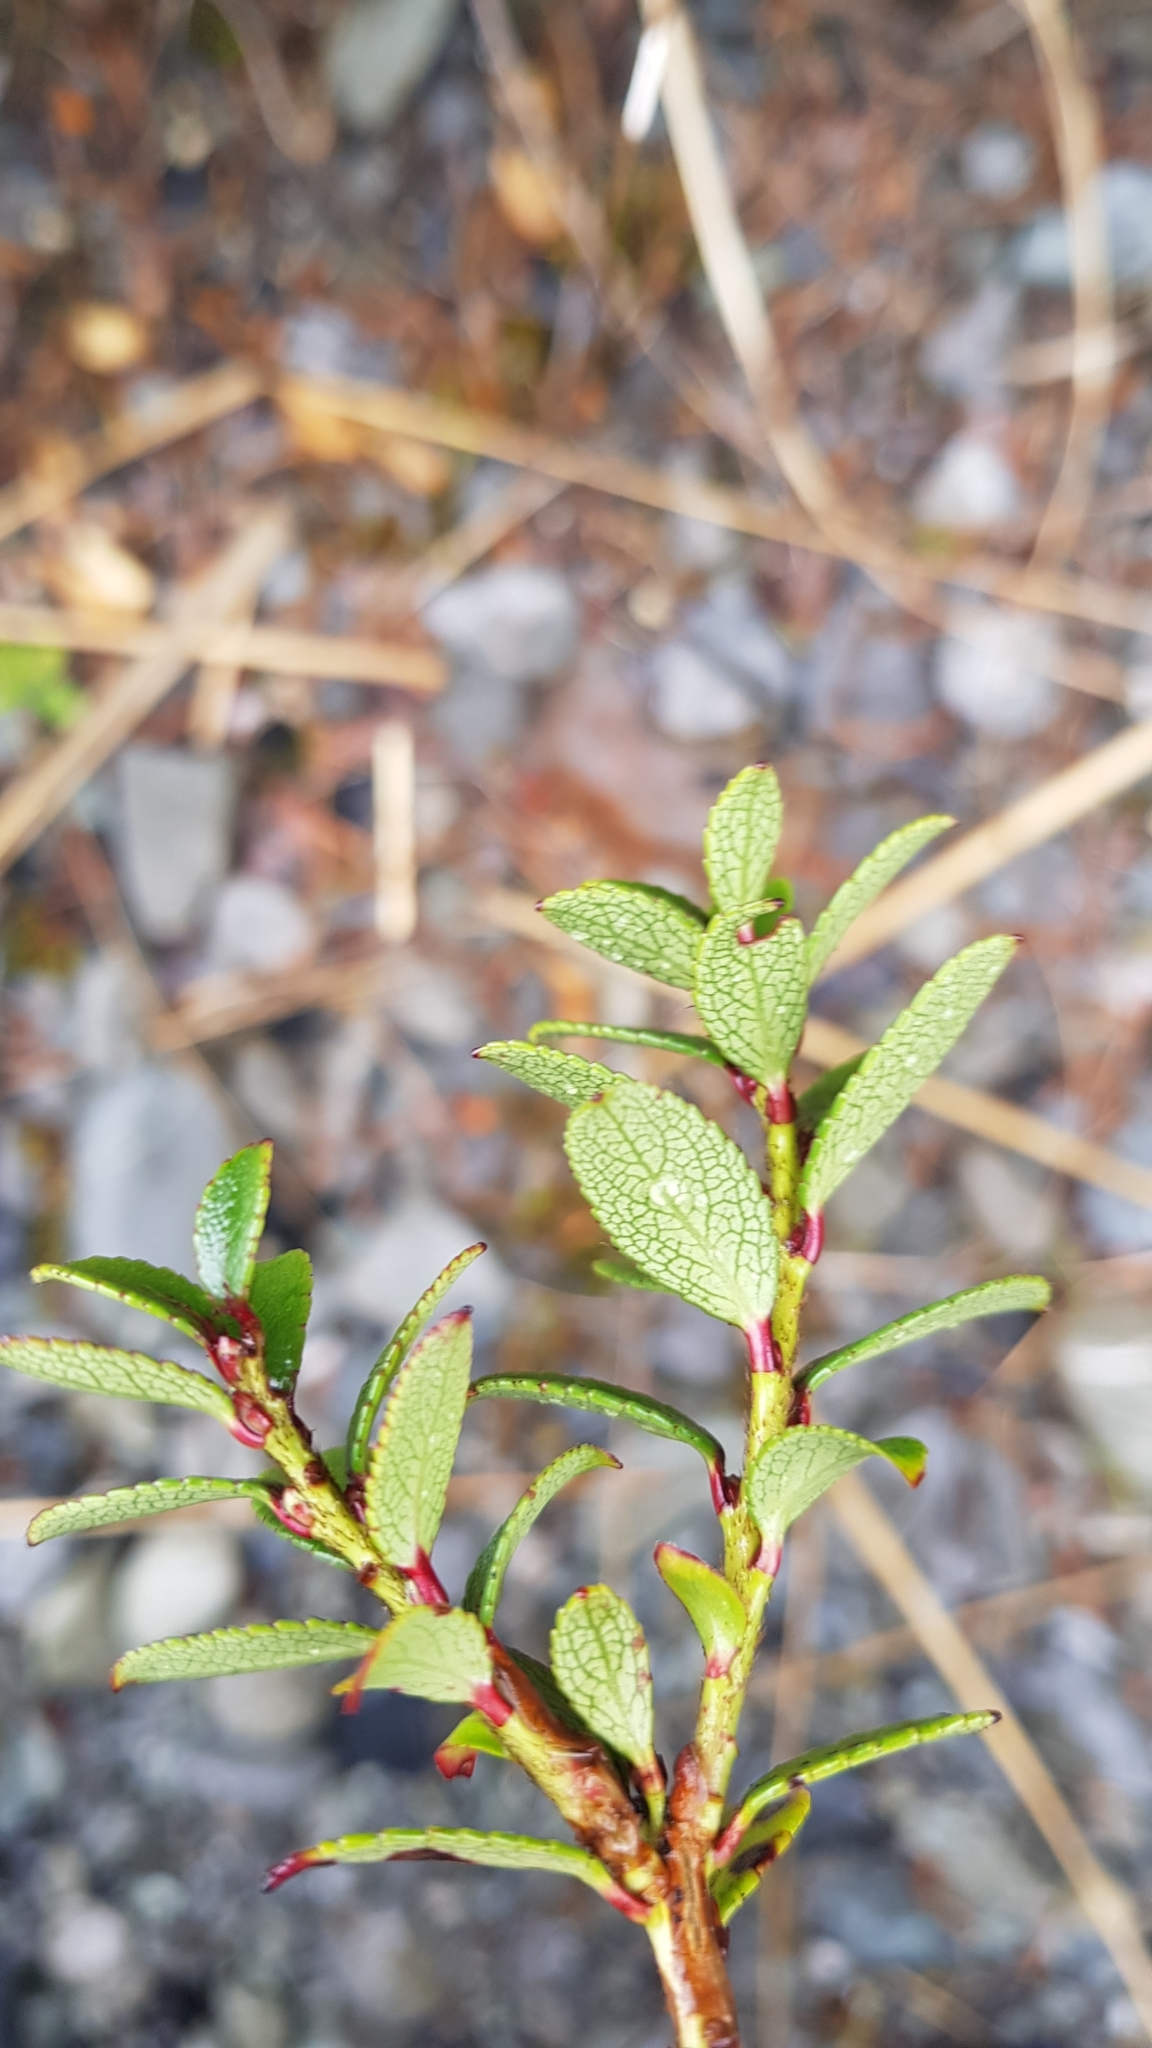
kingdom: Plantae
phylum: Tracheophyta
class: Magnoliopsida
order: Ericales
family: Ericaceae
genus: Gaultheria
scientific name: Gaultheria crassa
